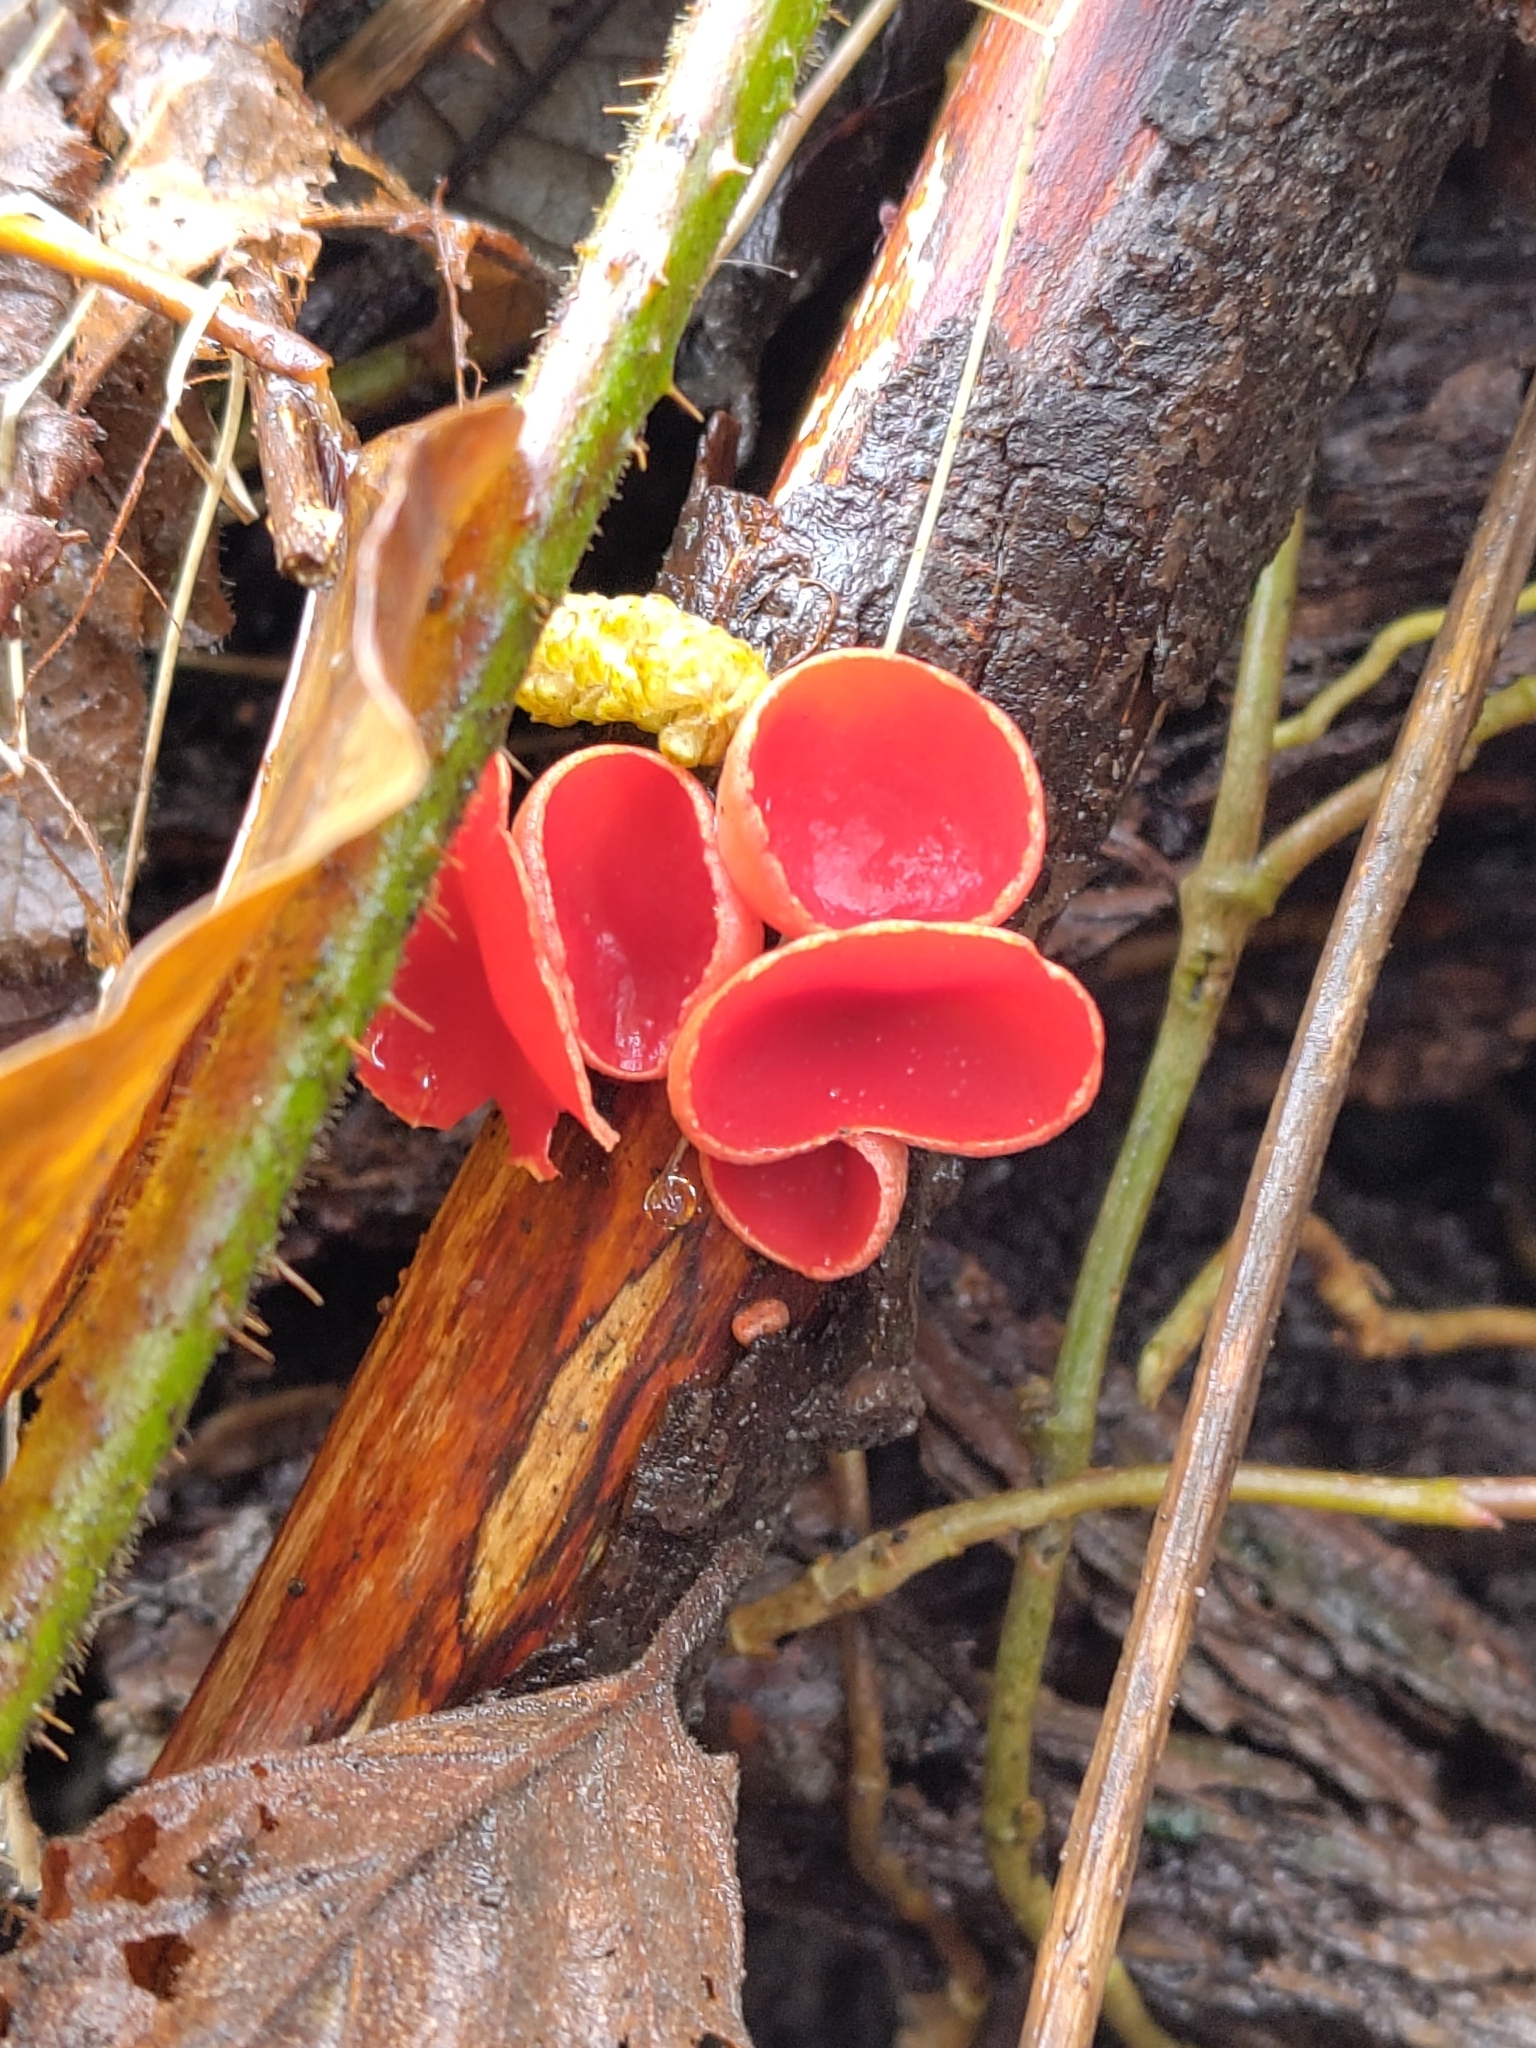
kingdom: Fungi
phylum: Ascomycota
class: Pezizomycetes
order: Pezizales
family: Sarcoscyphaceae
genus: Sarcoscypha
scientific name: Sarcoscypha
